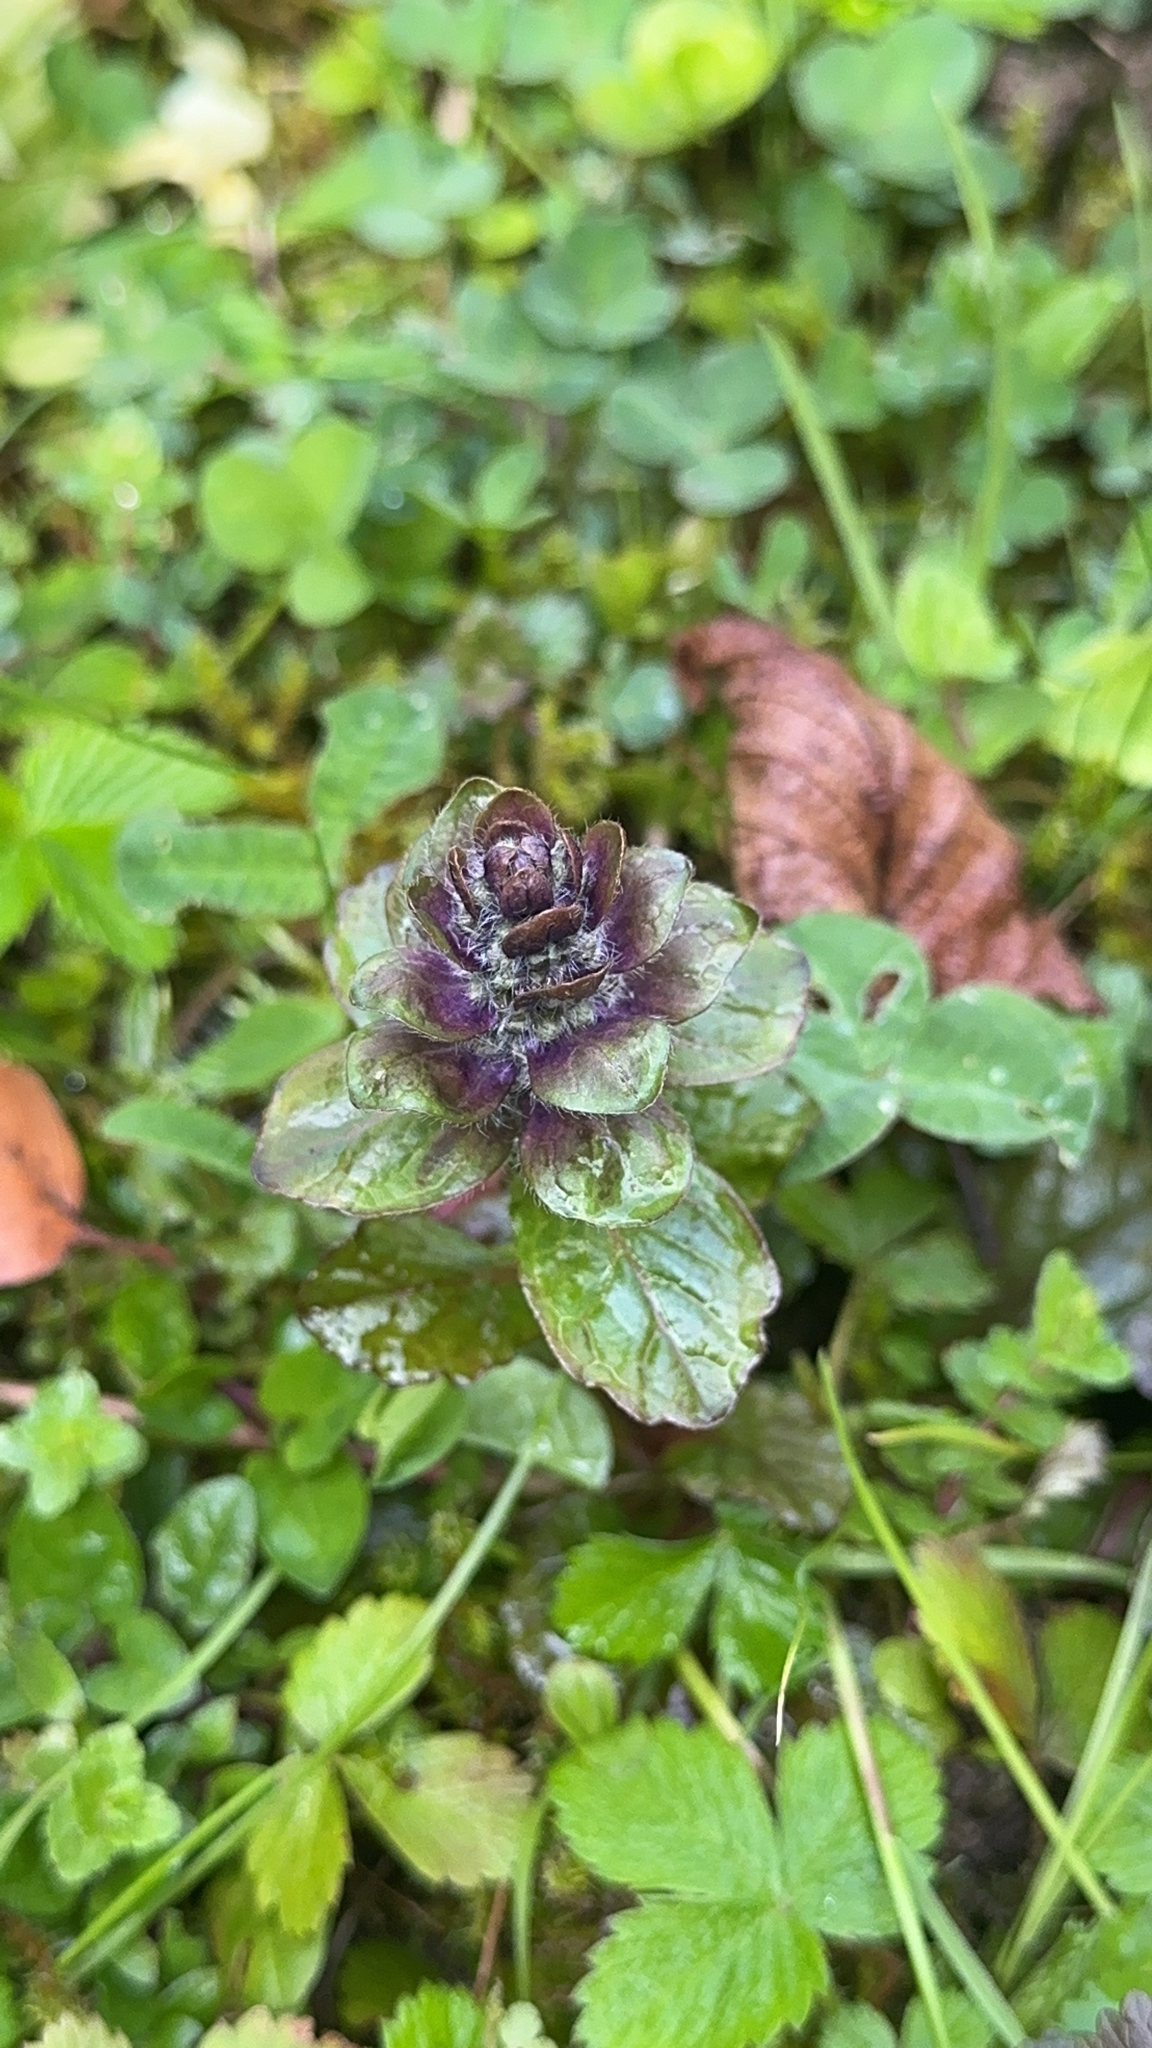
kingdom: Plantae
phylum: Tracheophyta
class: Magnoliopsida
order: Lamiales
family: Lamiaceae
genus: Ajuga
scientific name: Ajuga reptans
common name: Bugle
